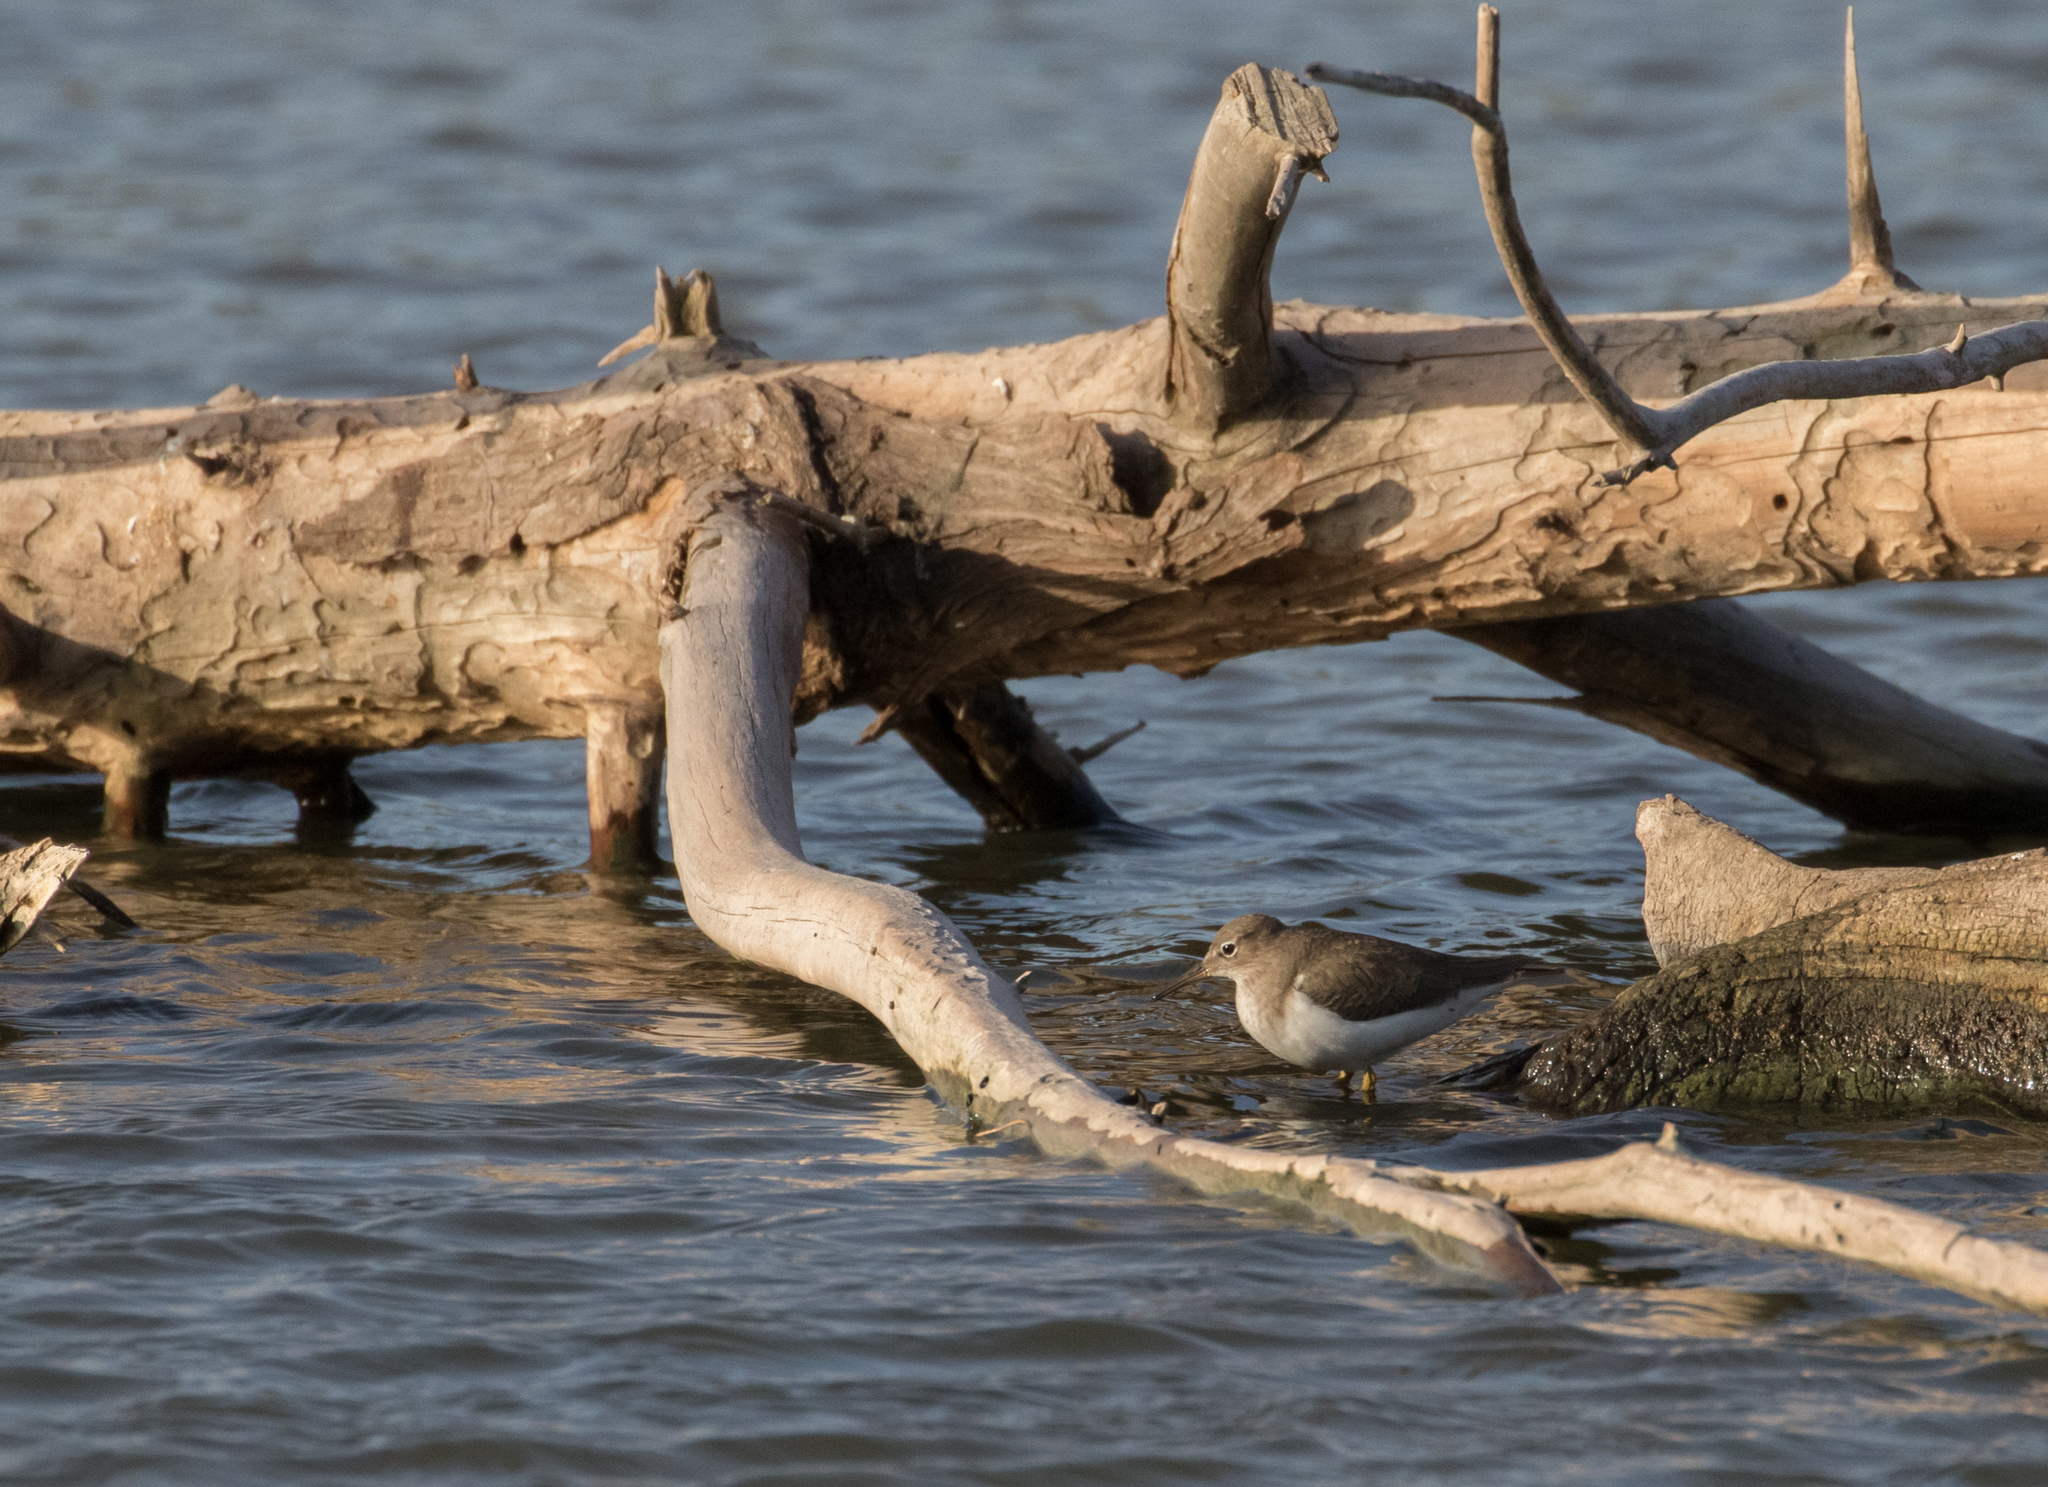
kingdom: Animalia
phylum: Chordata
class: Aves
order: Charadriiformes
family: Scolopacidae
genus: Actitis
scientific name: Actitis macularius
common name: Spotted sandpiper
